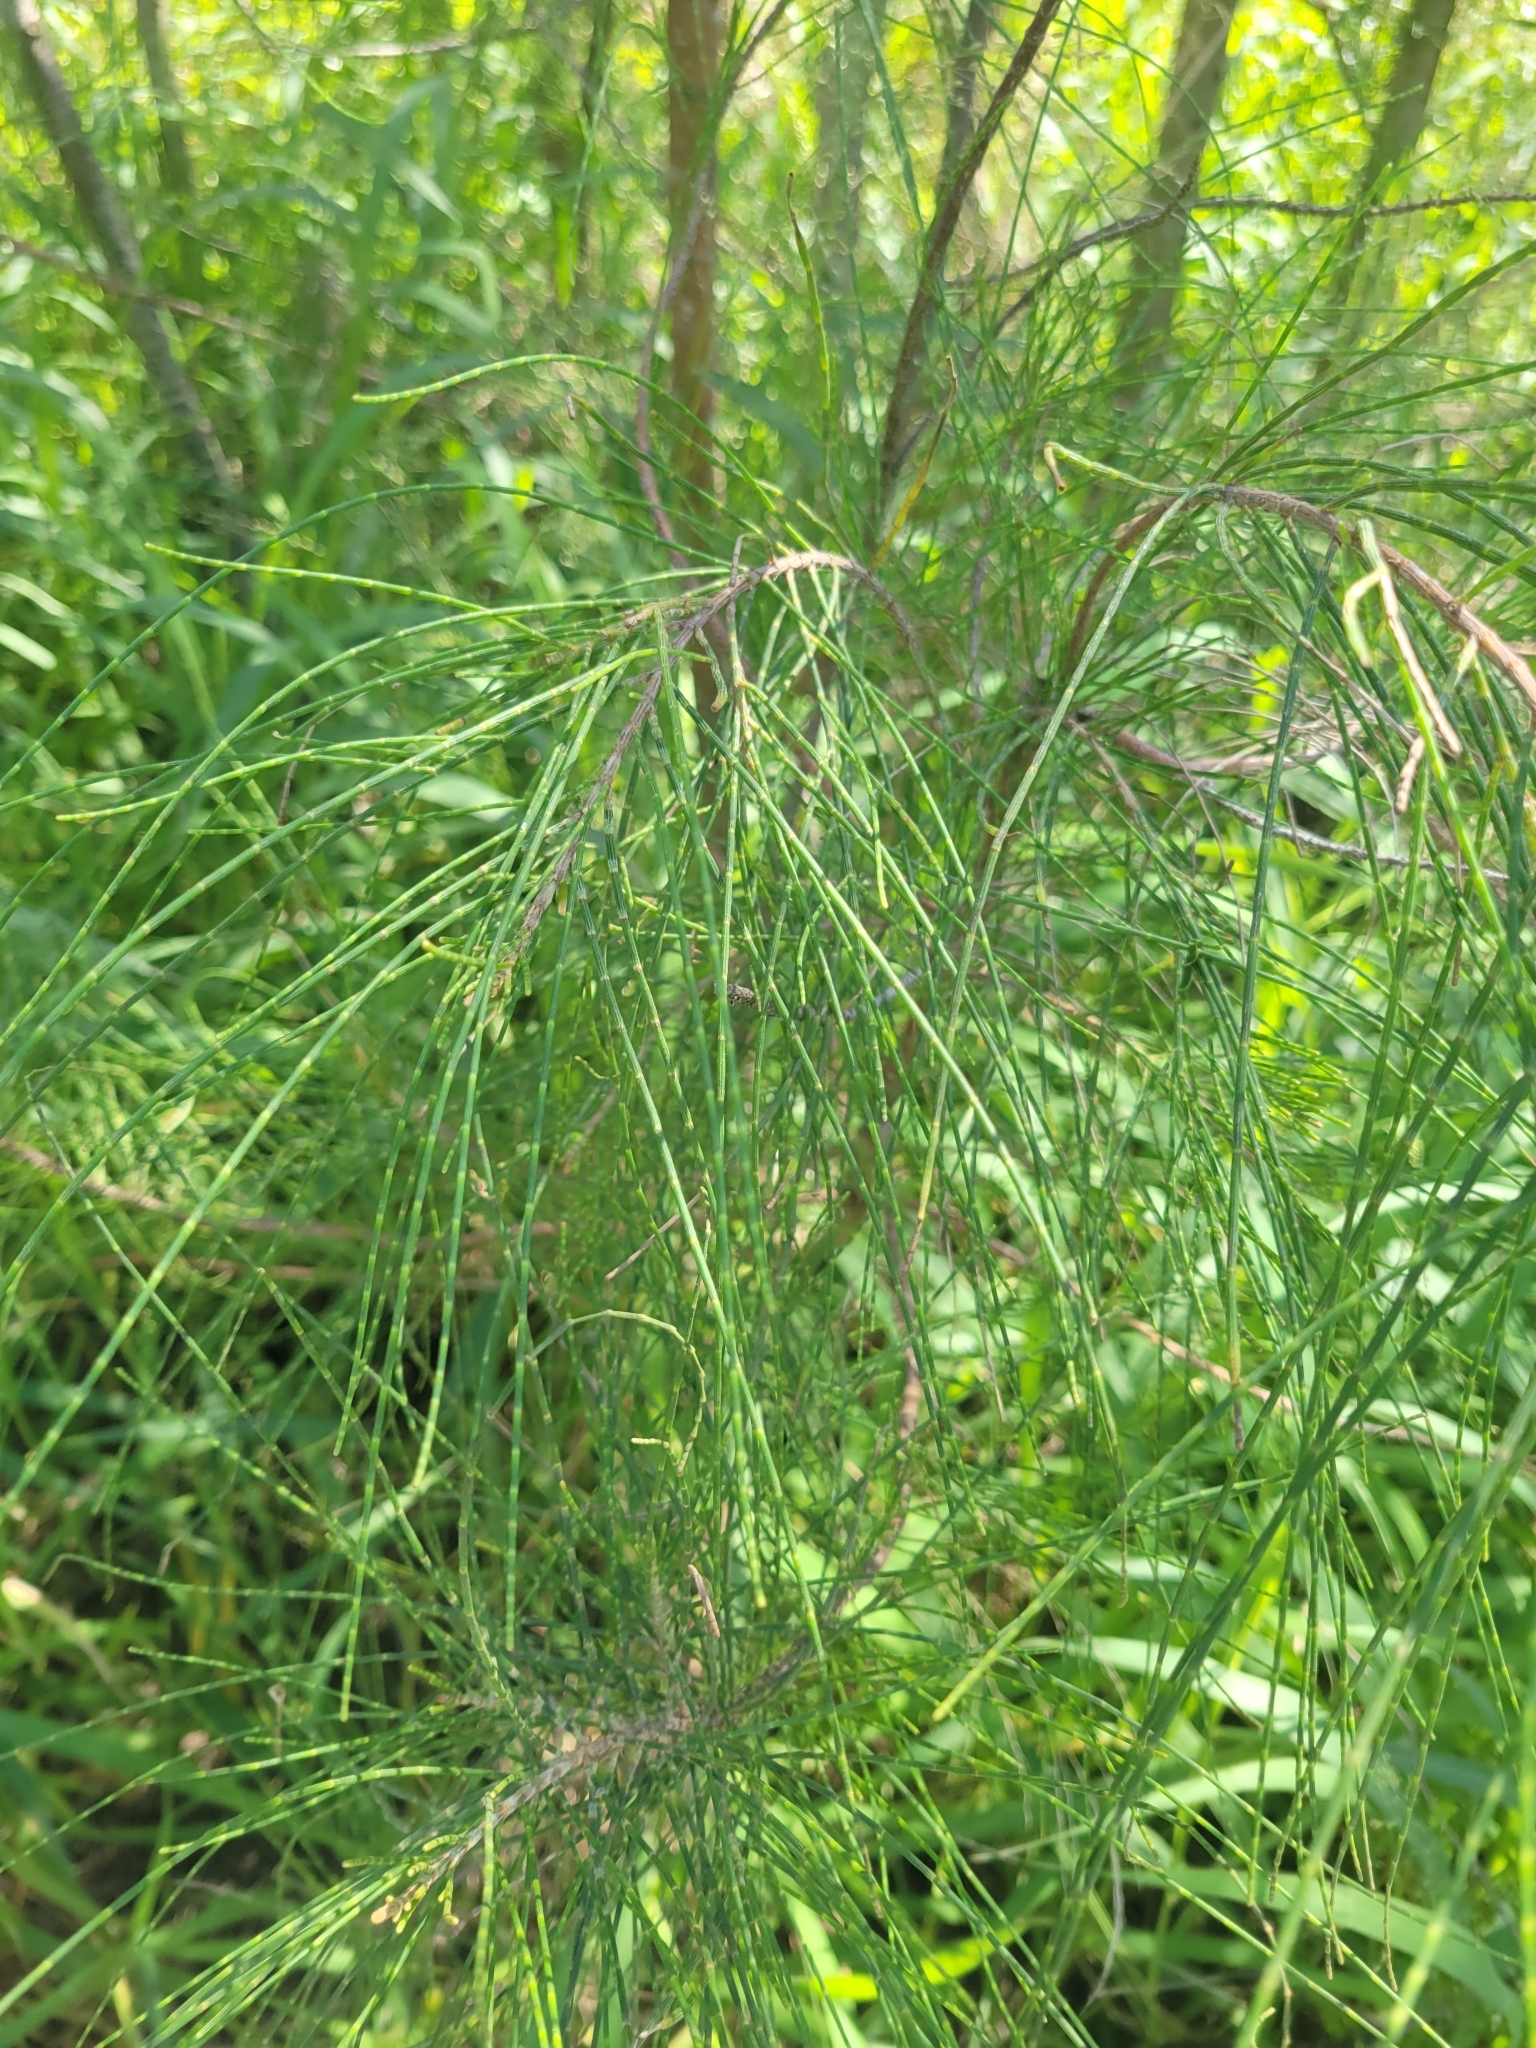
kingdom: Plantae
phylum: Tracheophyta
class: Magnoliopsida
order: Fagales
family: Casuarinaceae
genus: Casuarina
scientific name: Casuarina equisetifolia
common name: Beach sheoak
